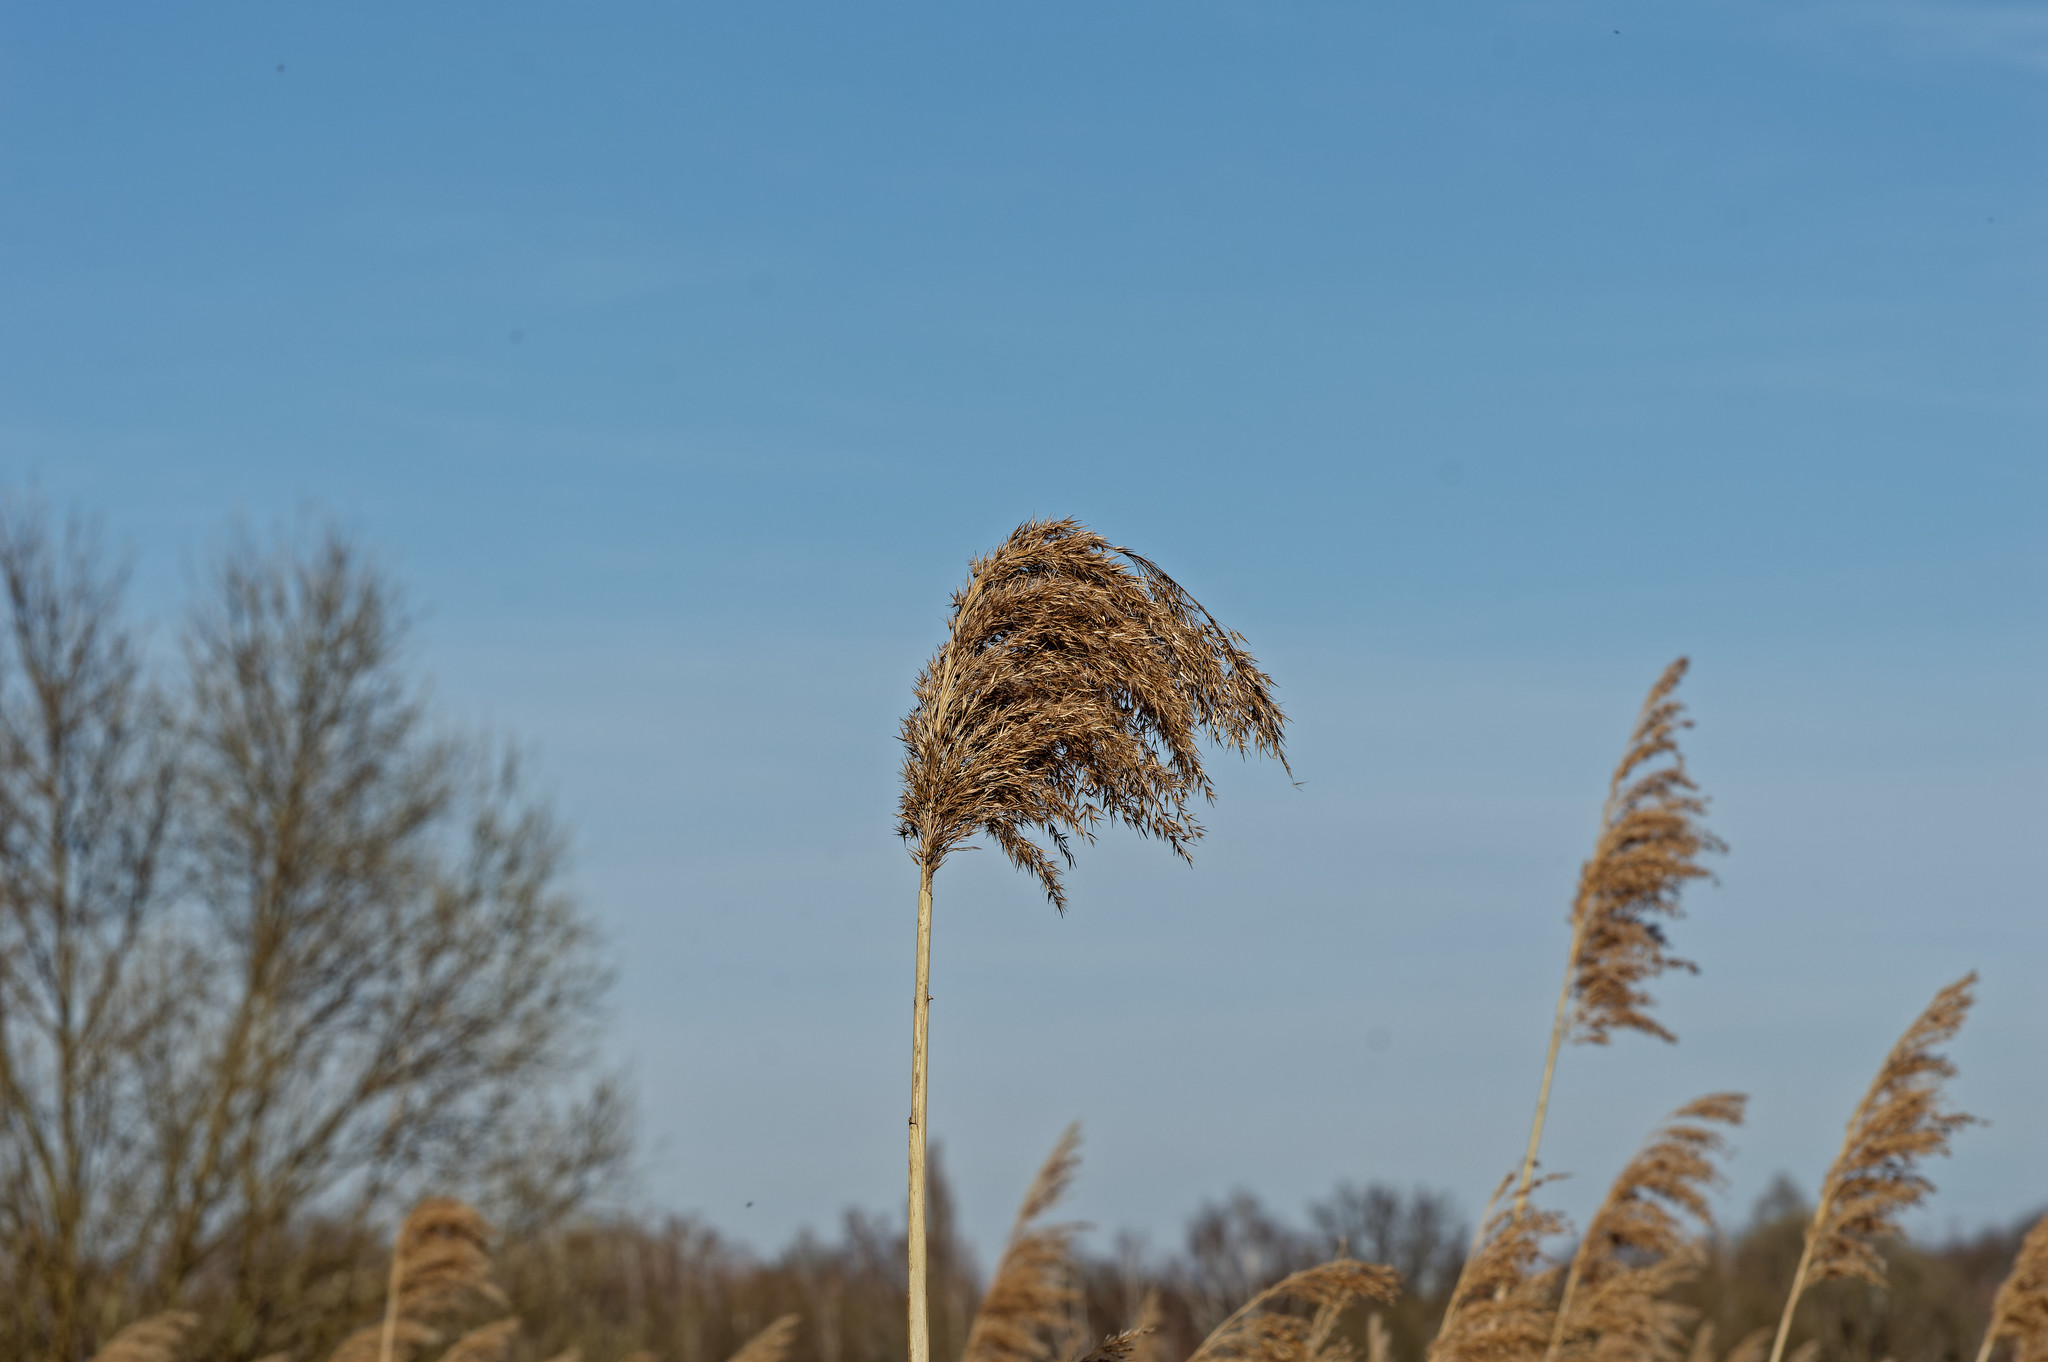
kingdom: Plantae
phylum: Tracheophyta
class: Liliopsida
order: Poales
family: Poaceae
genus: Phragmites
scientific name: Phragmites australis
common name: Common reed
